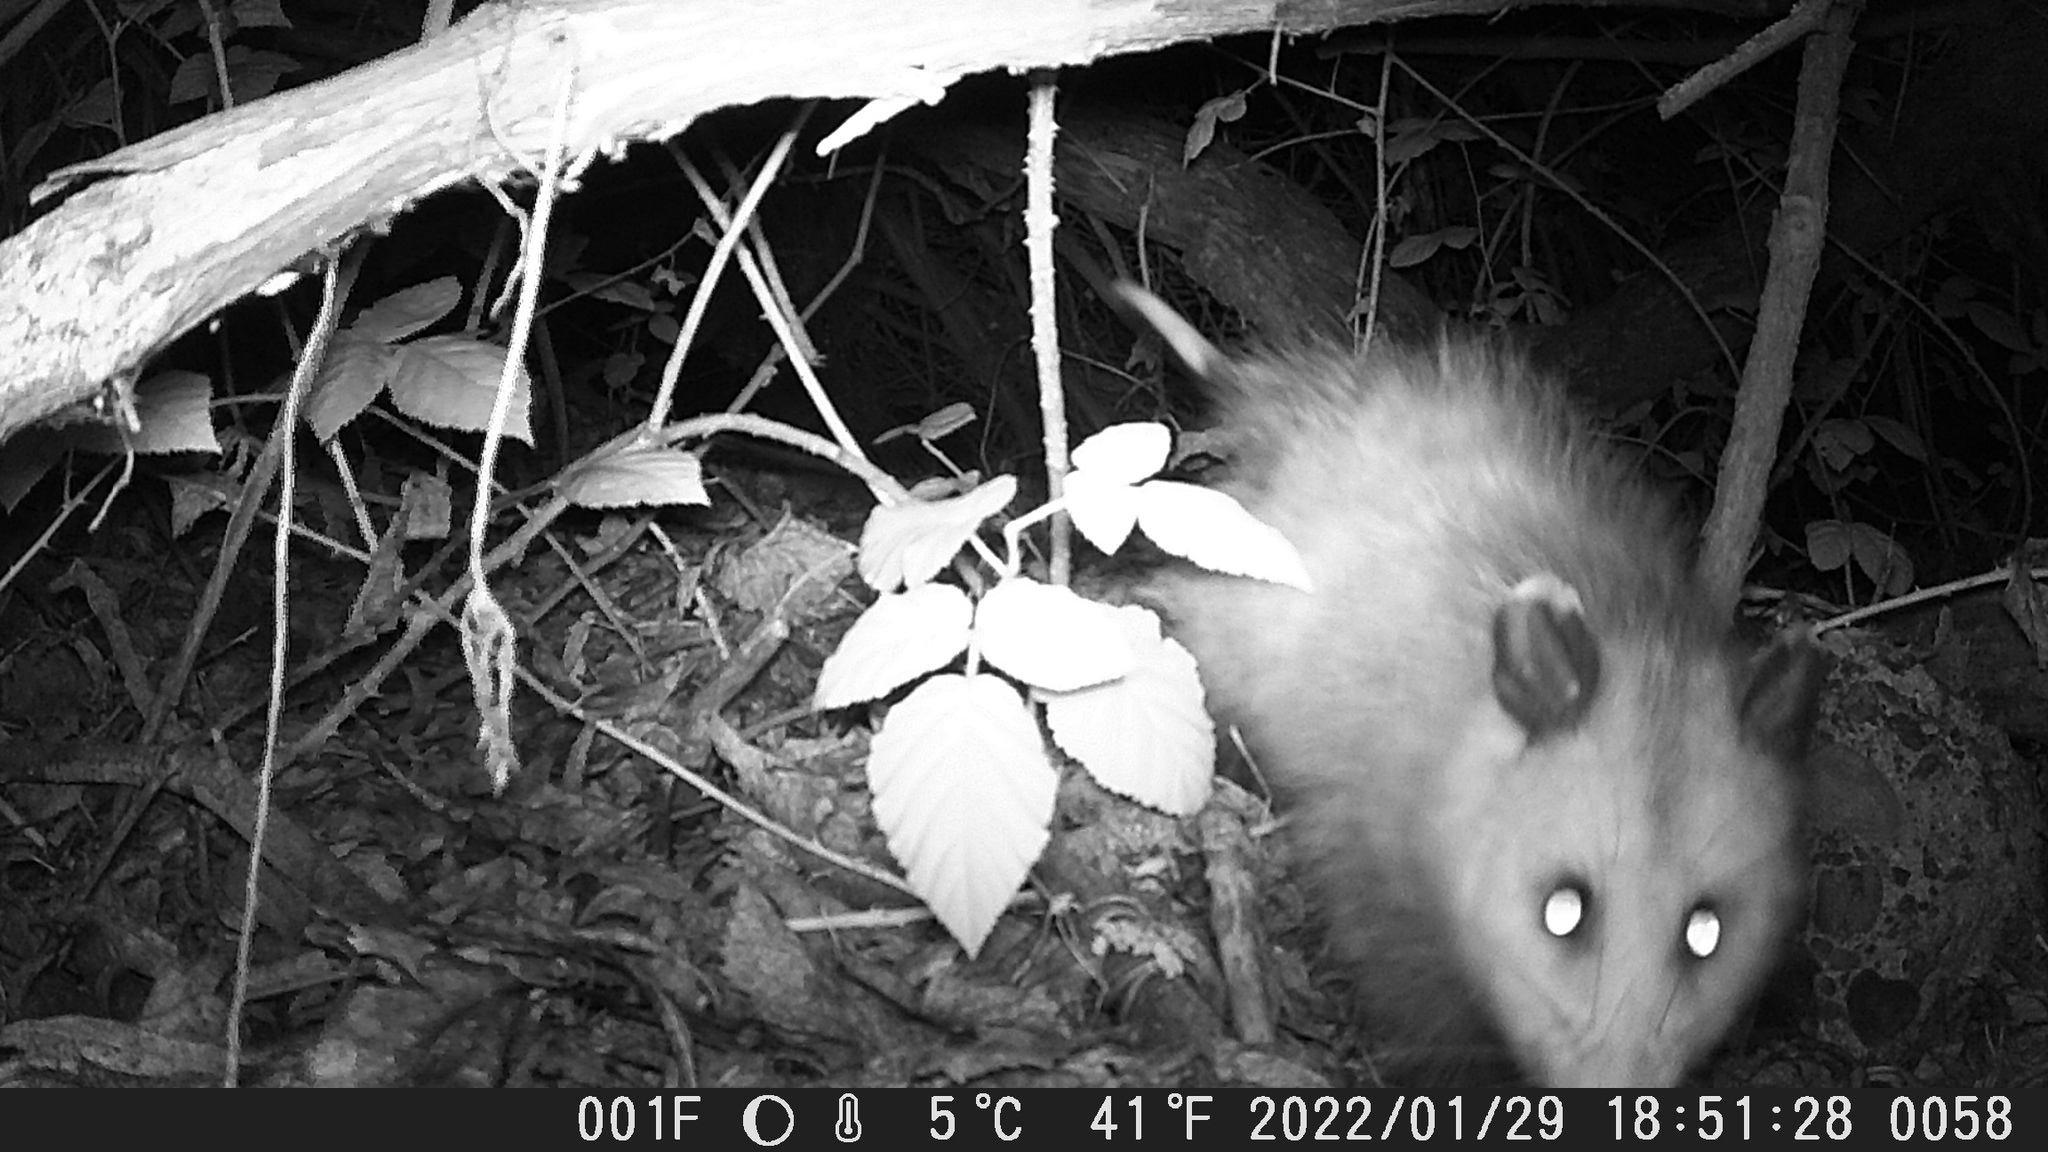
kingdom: Animalia
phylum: Chordata
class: Mammalia
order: Didelphimorphia
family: Didelphidae
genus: Didelphis
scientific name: Didelphis virginiana
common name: Virginia opossum
